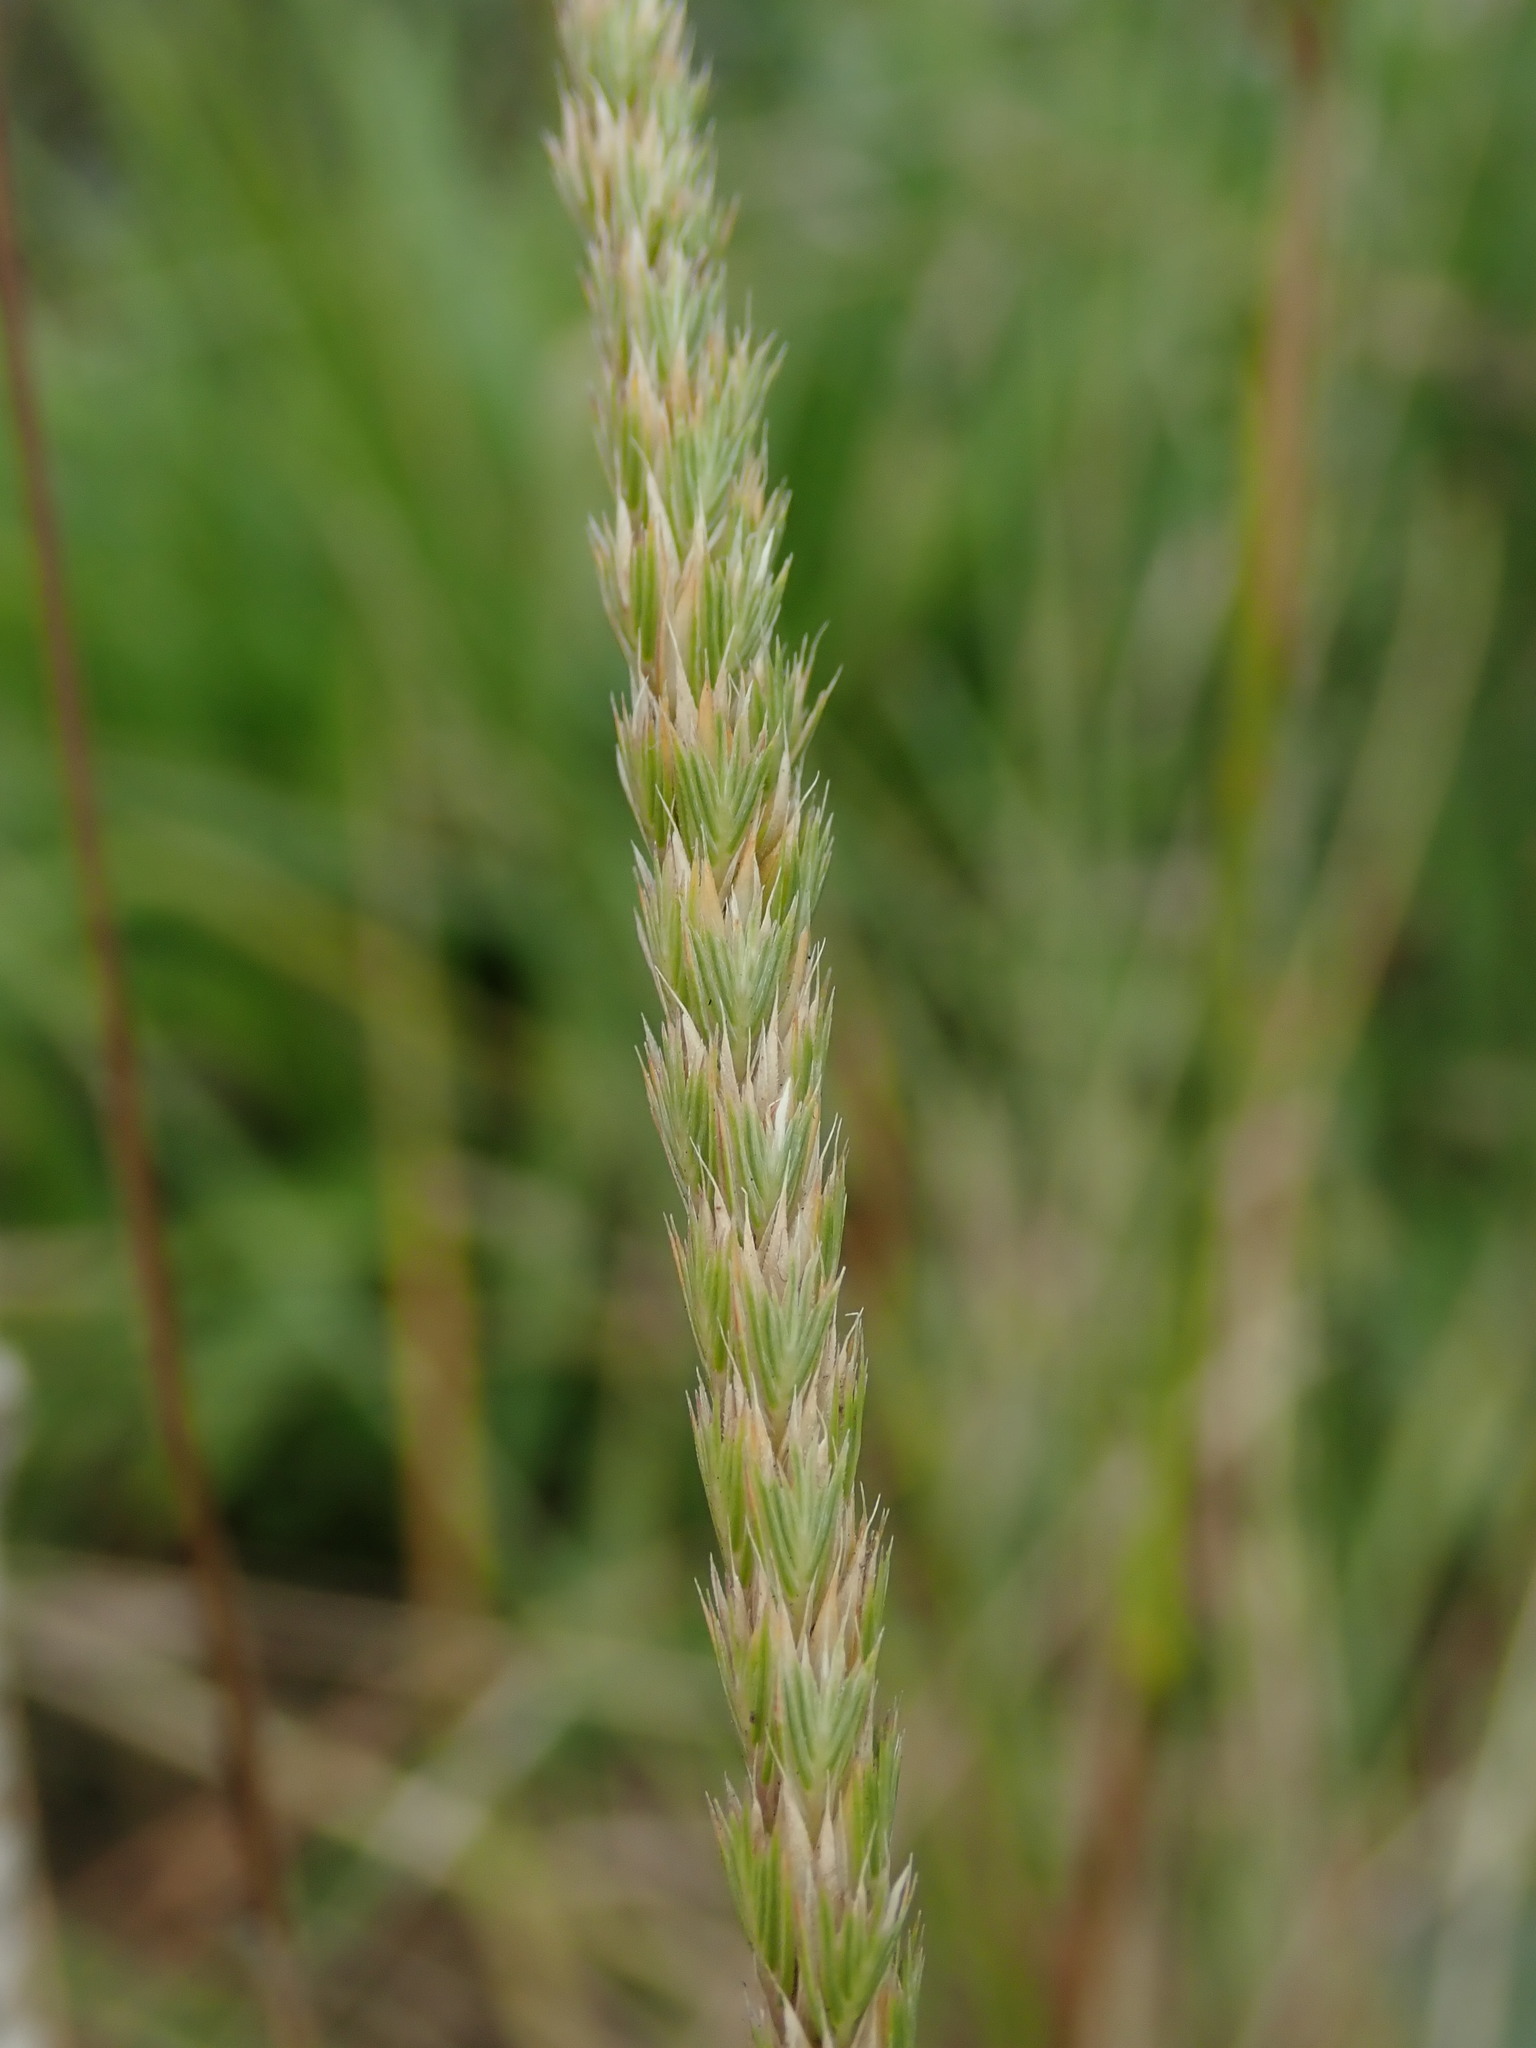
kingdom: Plantae
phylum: Tracheophyta
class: Liliopsida
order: Poales
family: Poaceae
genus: Cynosurus
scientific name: Cynosurus cristatus
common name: Crested dog's-tail
